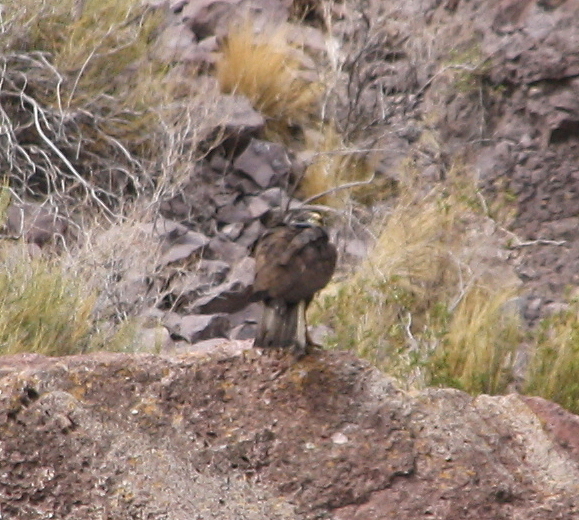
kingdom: Animalia
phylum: Chordata
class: Aves
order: Accipitriformes
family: Accipitridae
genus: Geranoaetus
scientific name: Geranoaetus melanoleucus
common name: Black-chested buzzard-eagle
